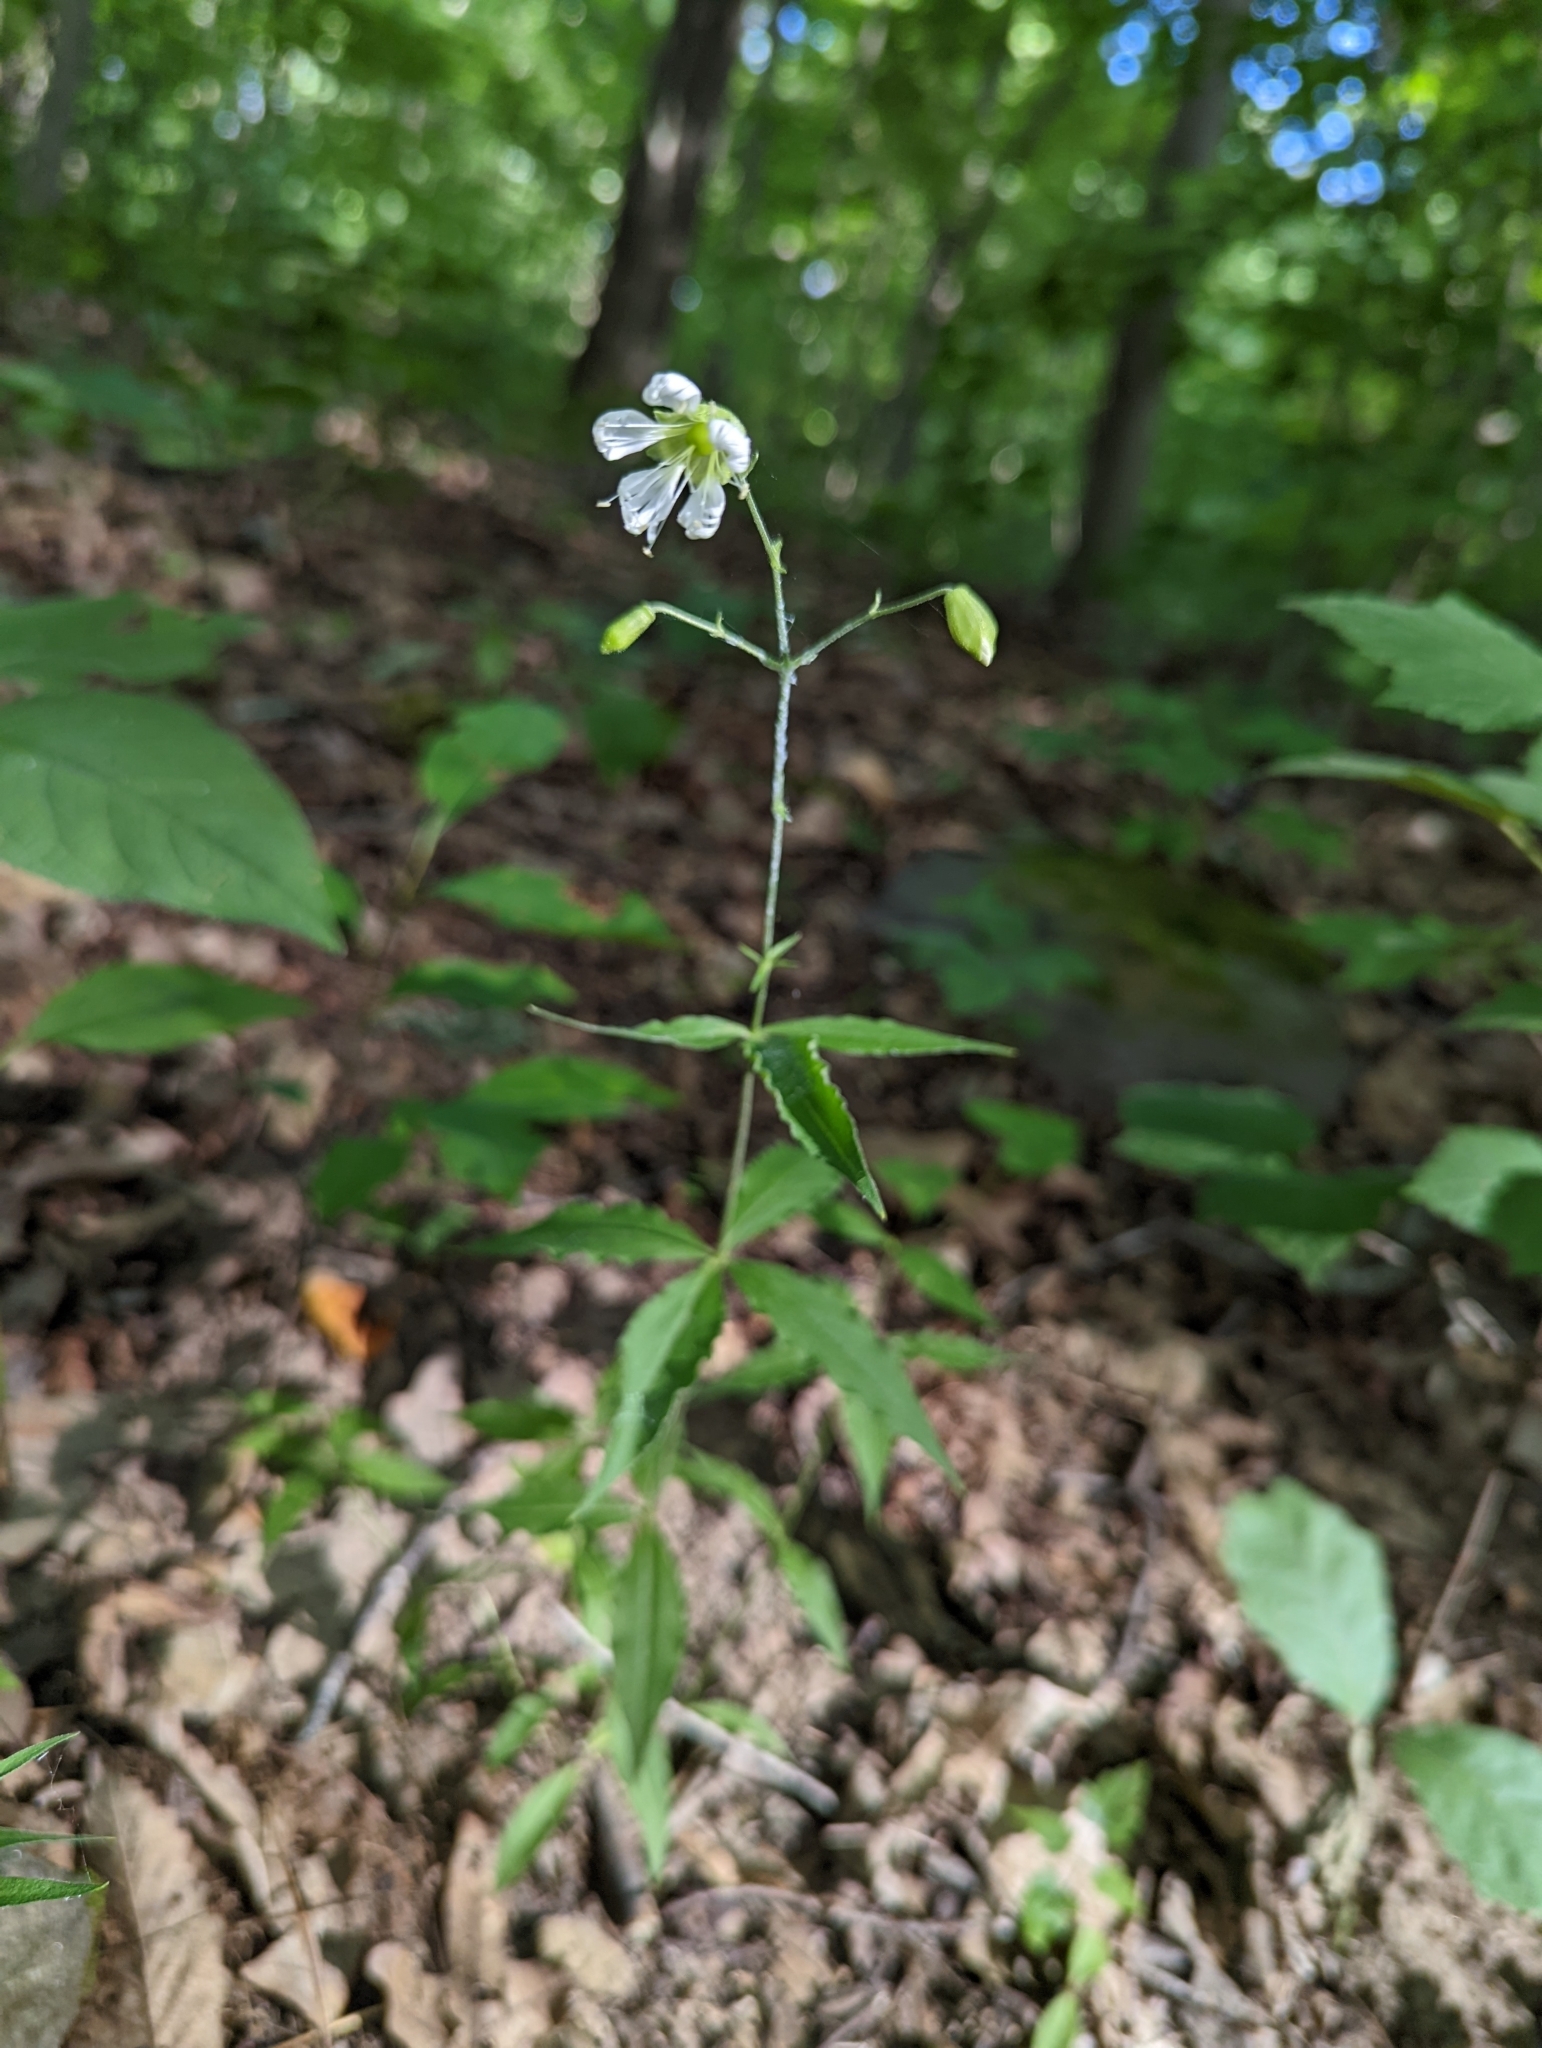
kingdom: Plantae
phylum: Tracheophyta
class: Magnoliopsida
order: Caryophyllales
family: Caryophyllaceae
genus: Silene
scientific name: Silene stellata
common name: Starry campion
